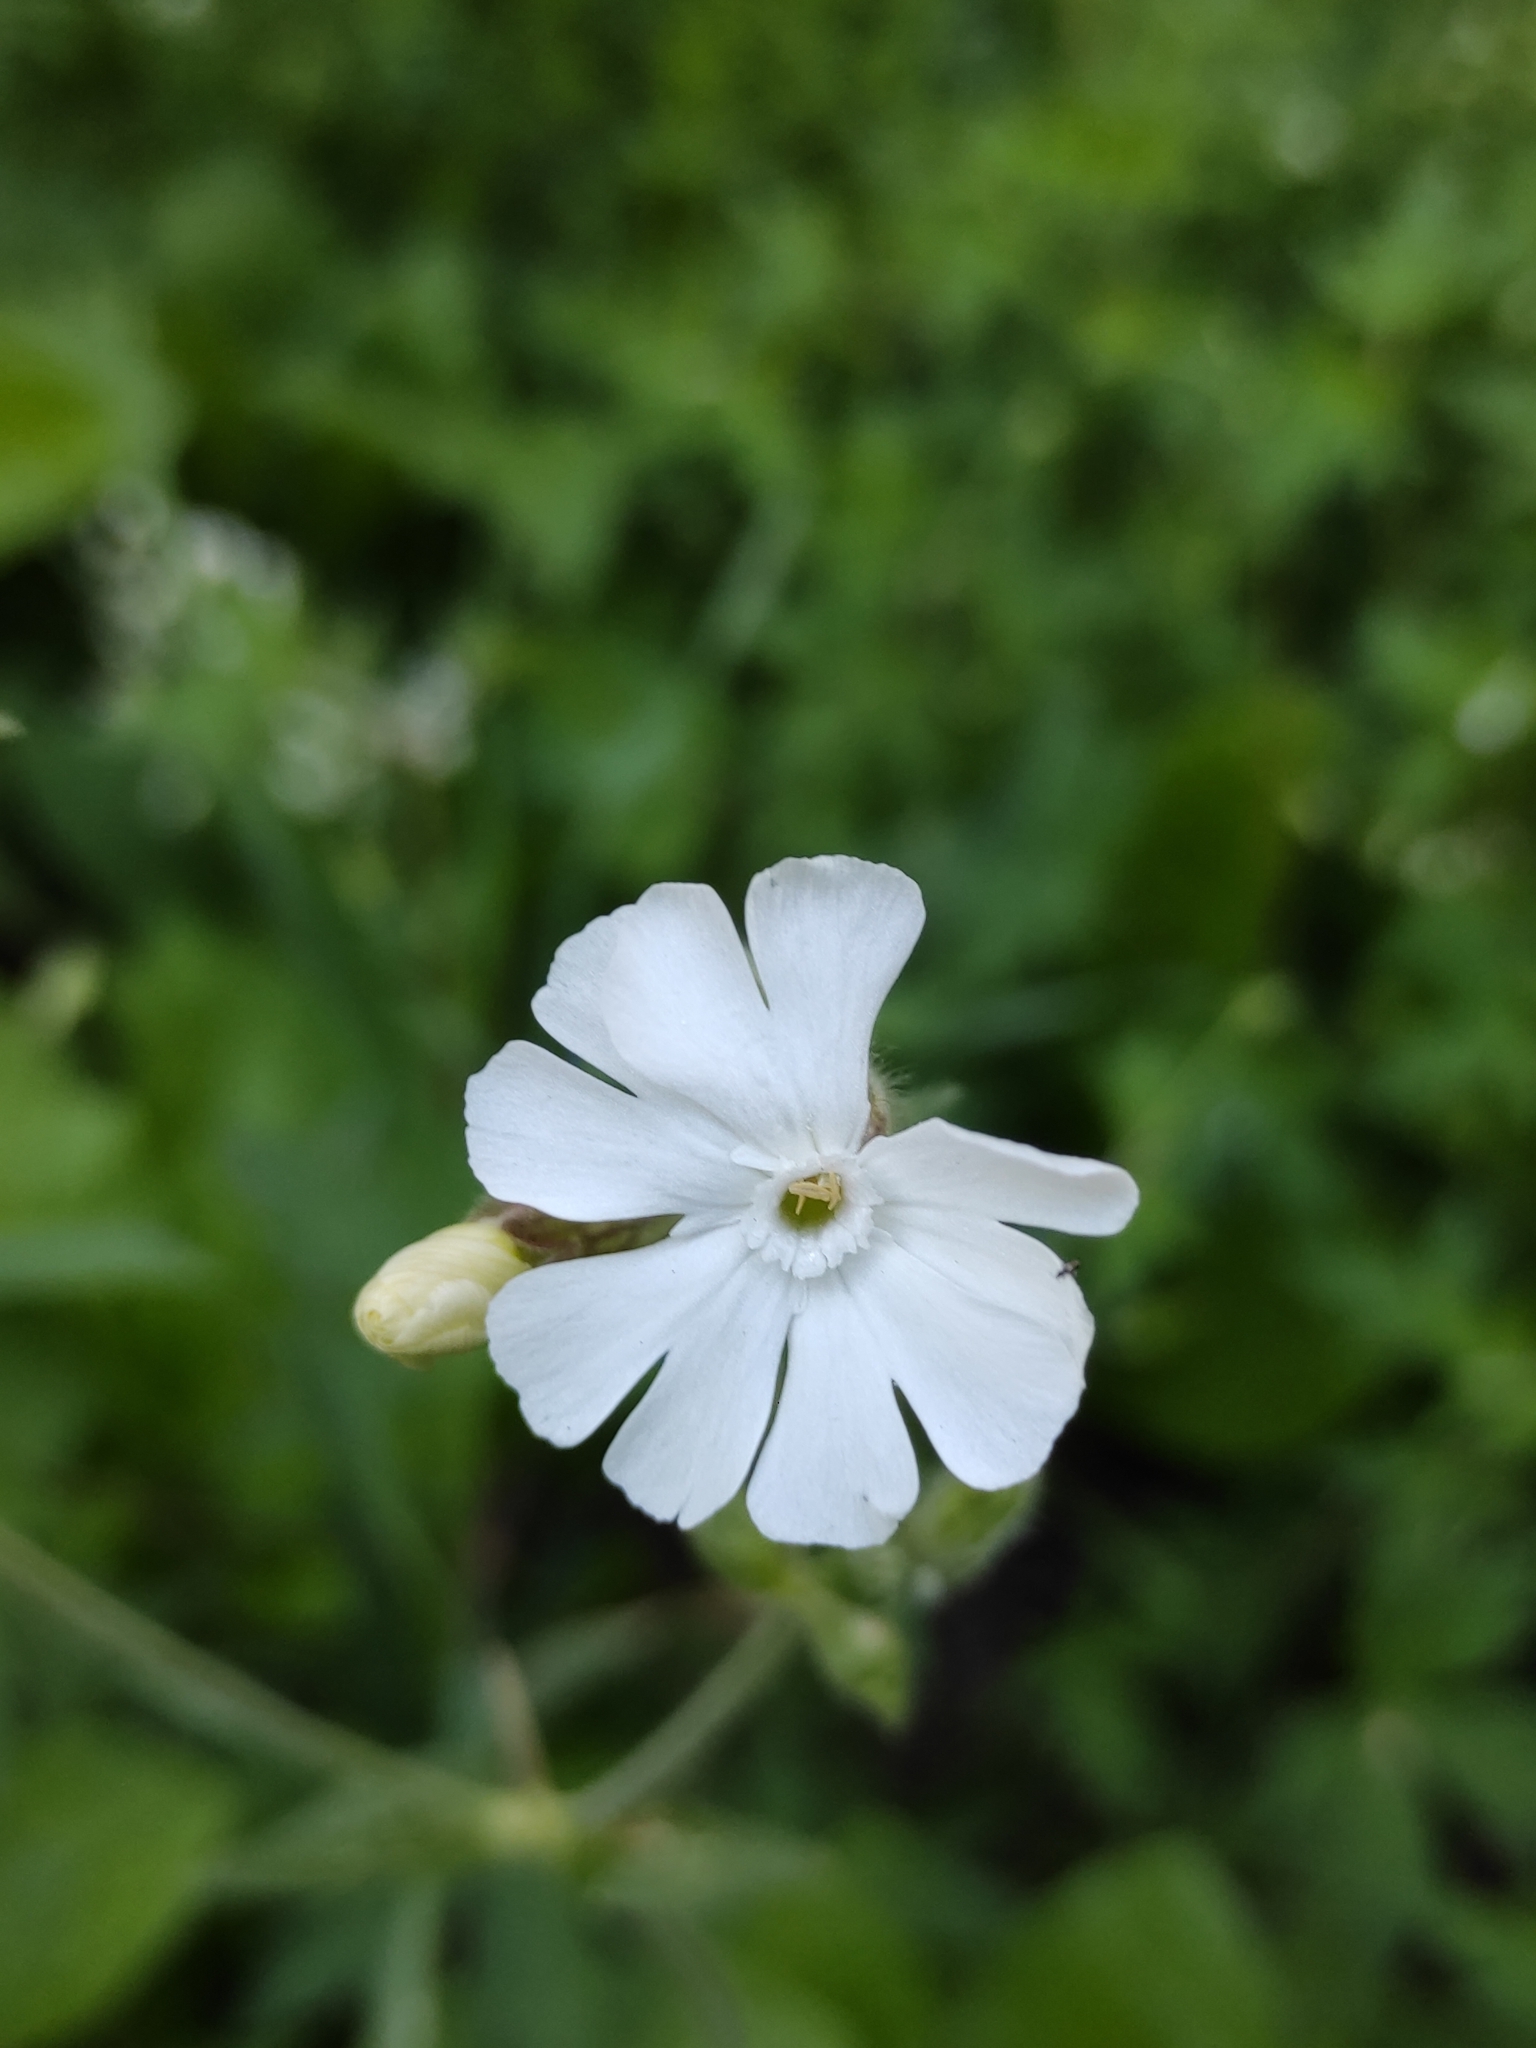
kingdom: Plantae
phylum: Tracheophyta
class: Magnoliopsida
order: Caryophyllales
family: Caryophyllaceae
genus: Silene
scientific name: Silene latifolia
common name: White campion
